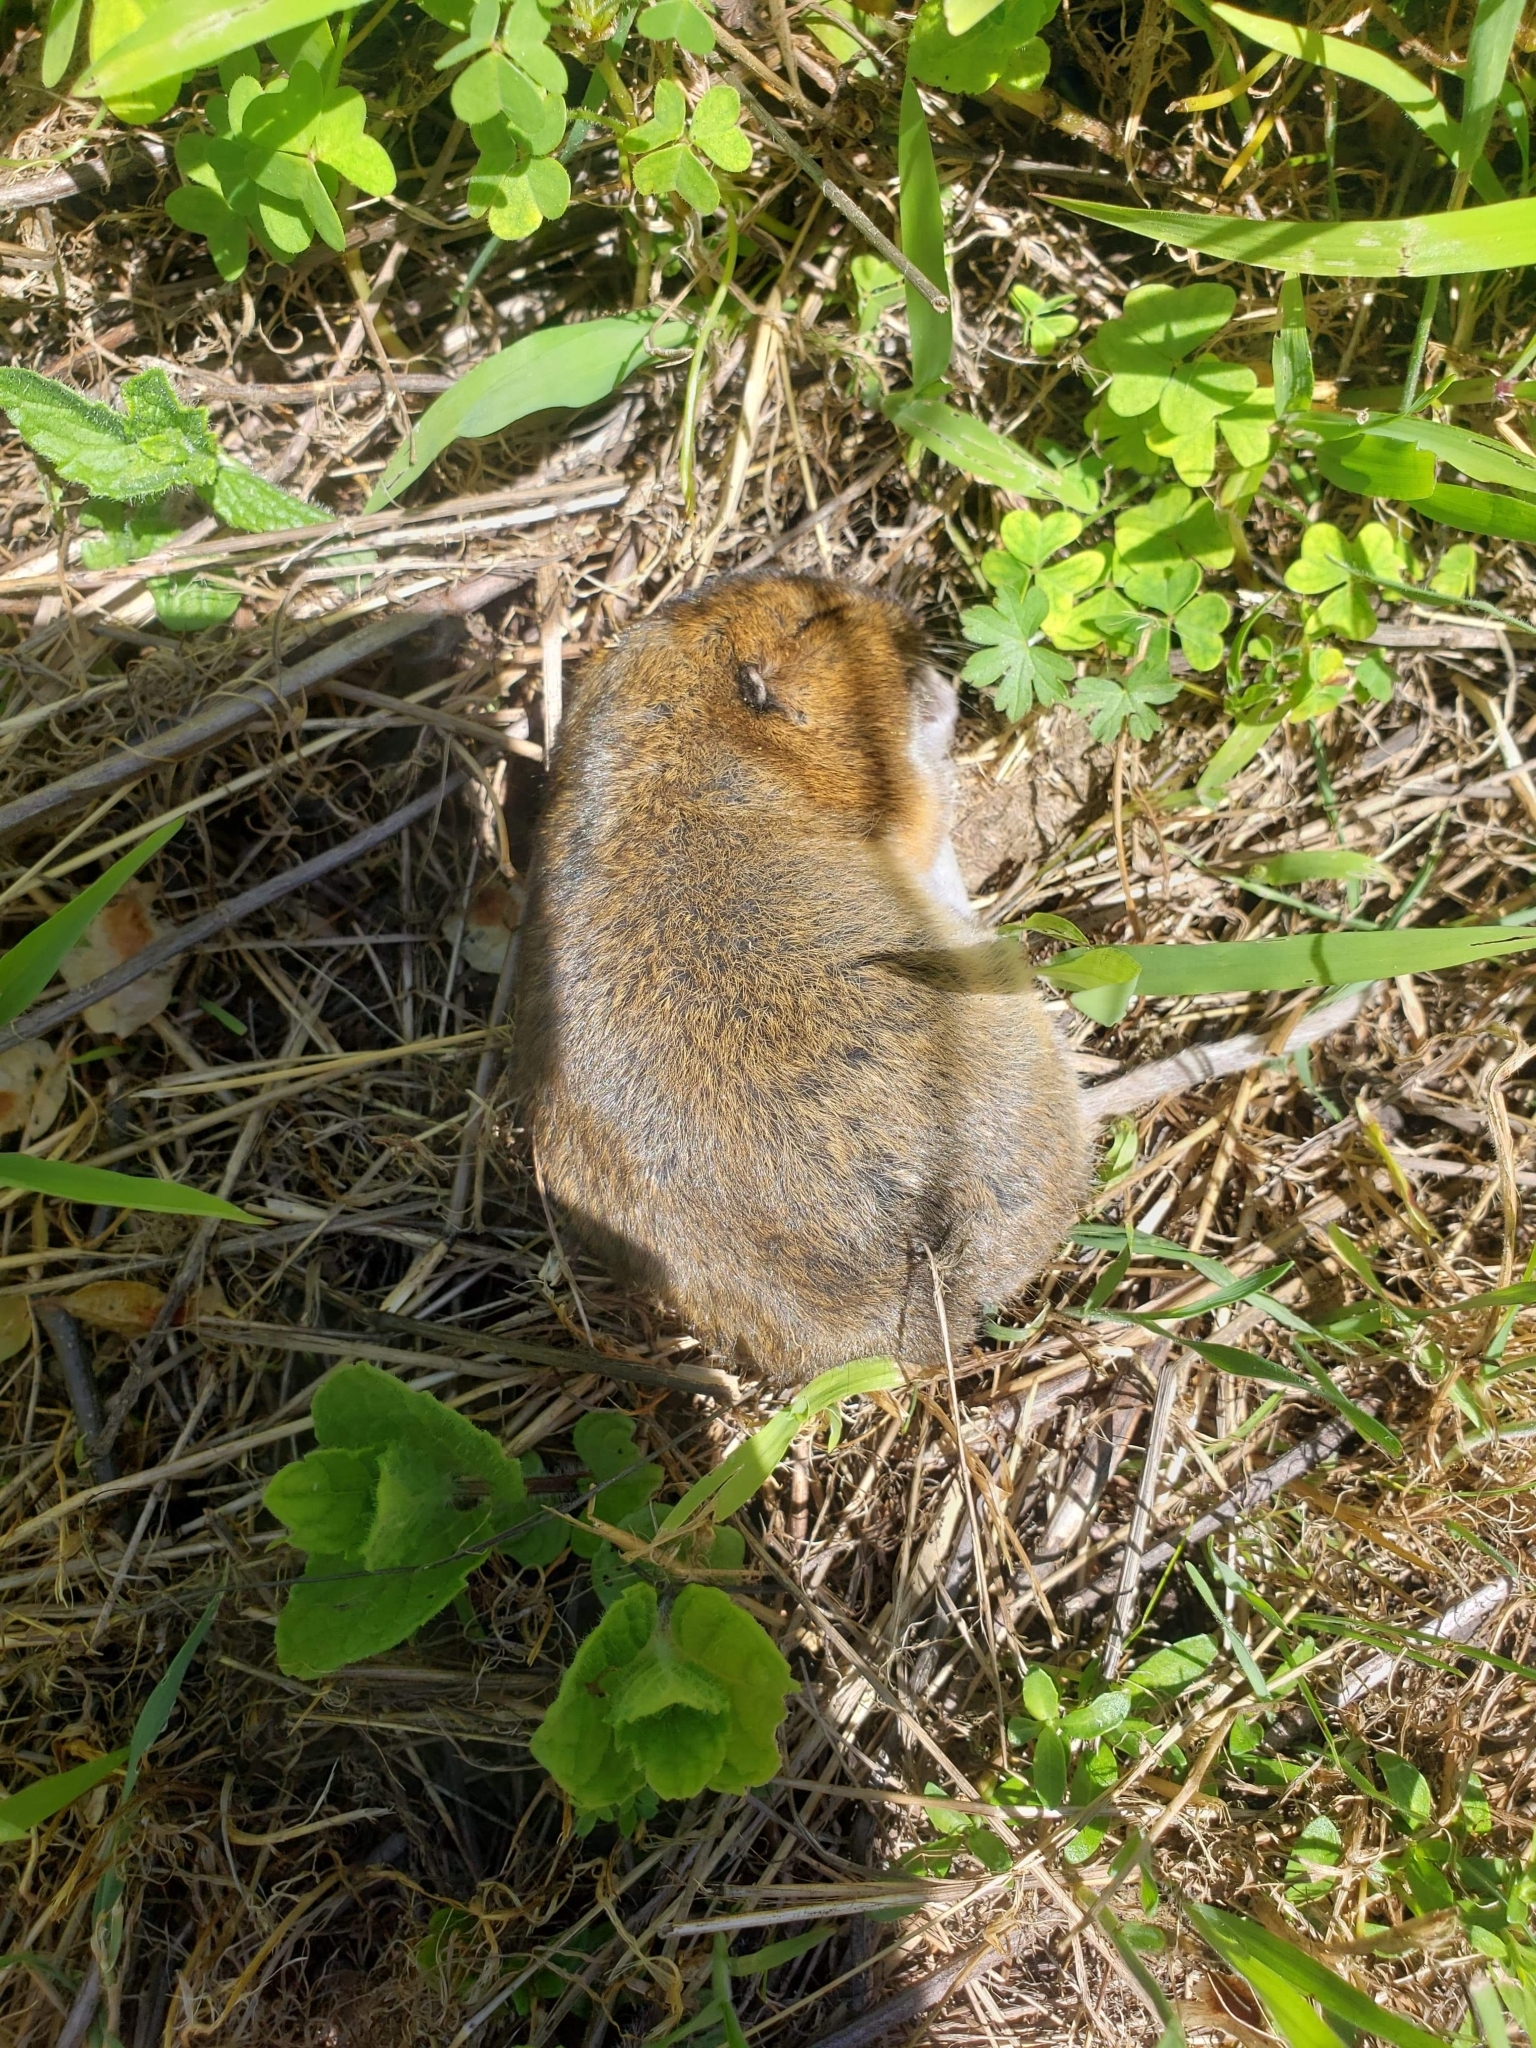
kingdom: Animalia
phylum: Chordata
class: Mammalia
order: Rodentia
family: Geomyidae
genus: Thomomys
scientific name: Thomomys bottae
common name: Botta's pocket gopher
